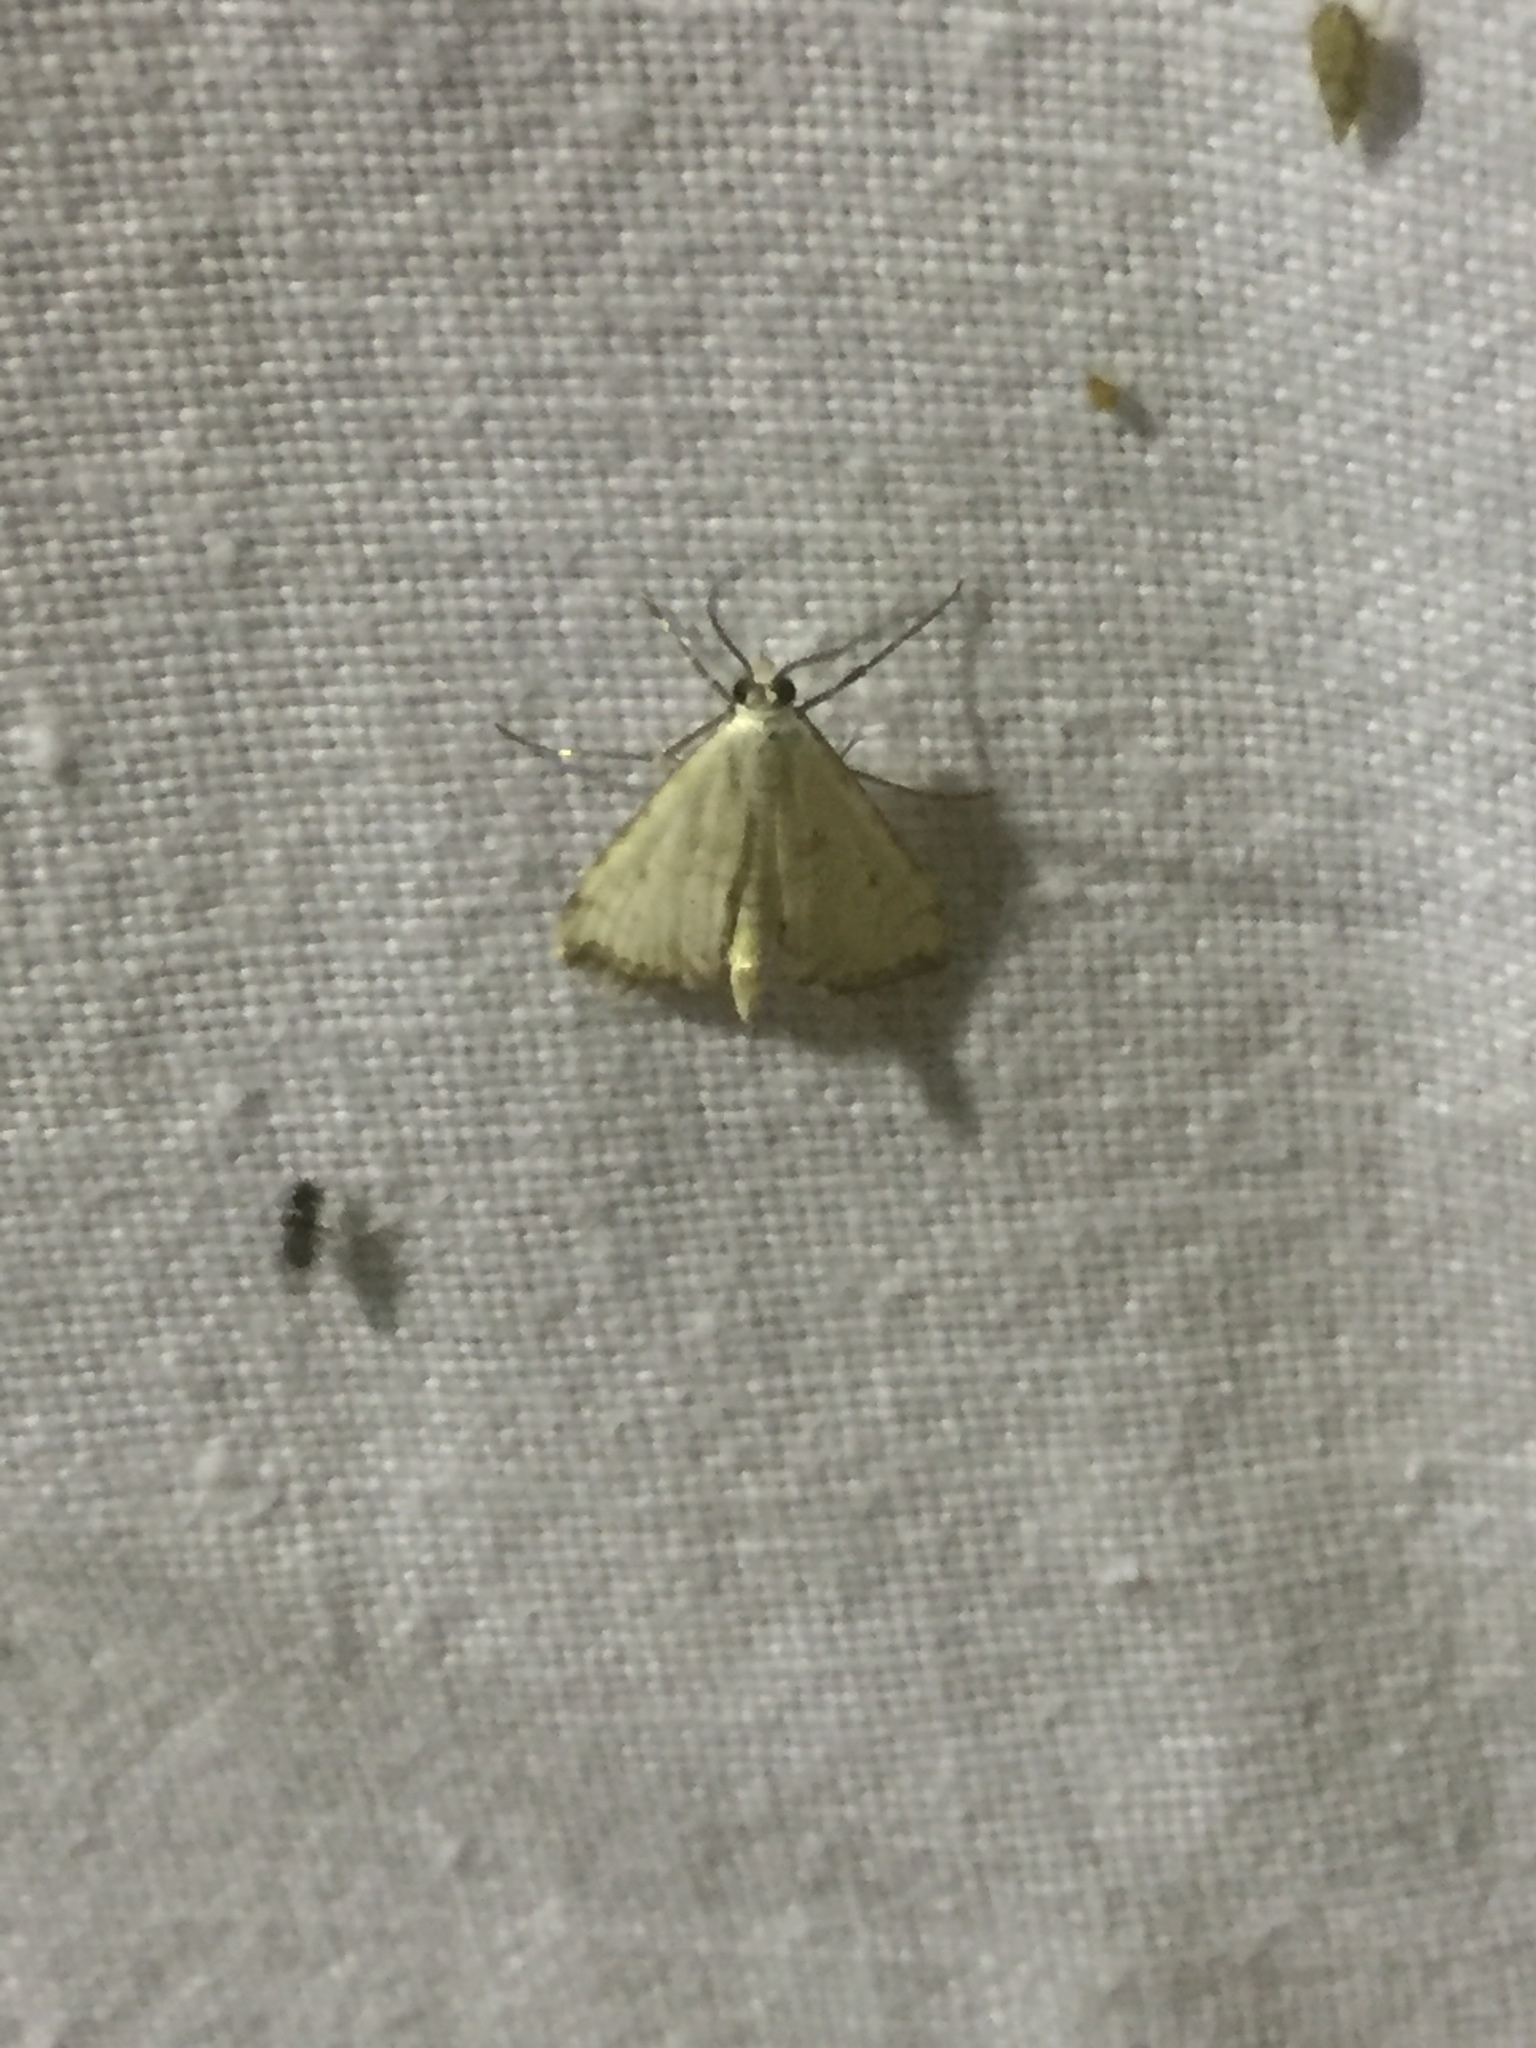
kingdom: Animalia
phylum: Arthropoda
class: Insecta
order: Lepidoptera
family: Crambidae
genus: Cataclysta
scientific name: Cataclysta lemnata
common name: Small china-mark
